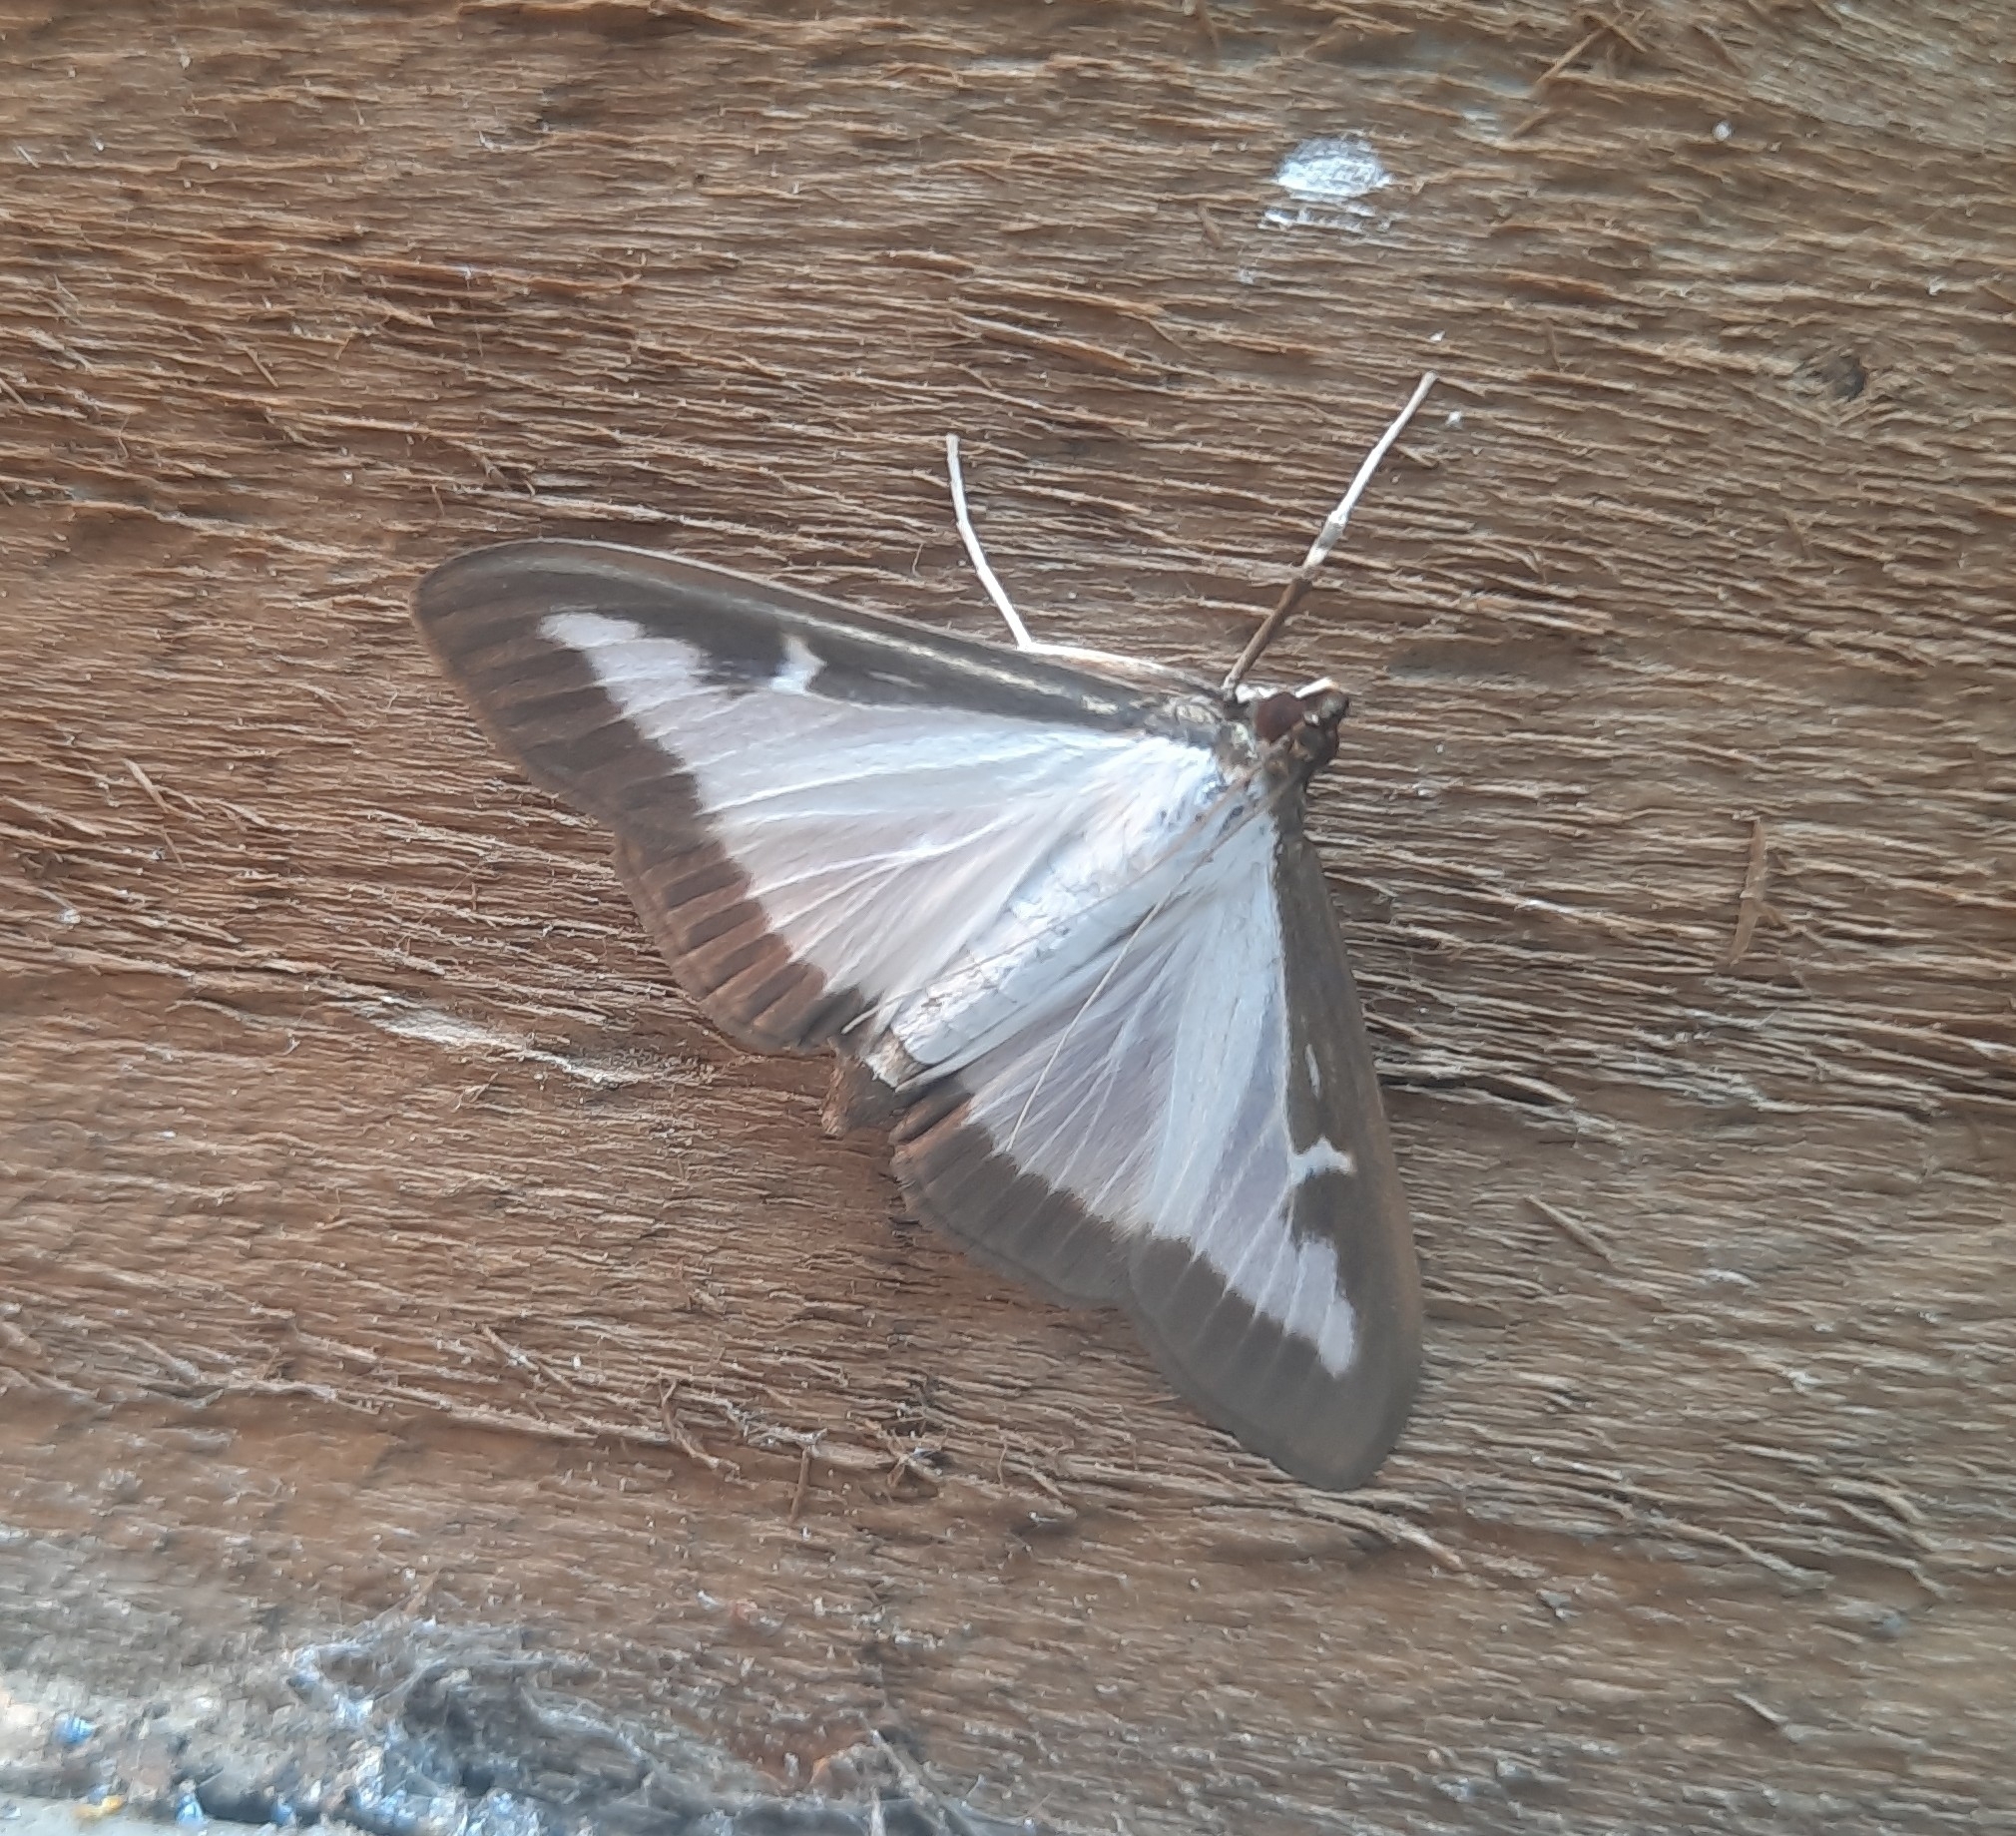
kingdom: Animalia
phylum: Arthropoda
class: Insecta
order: Lepidoptera
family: Crambidae
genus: Cydalima
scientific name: Cydalima perspectalis
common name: Box tree moth
